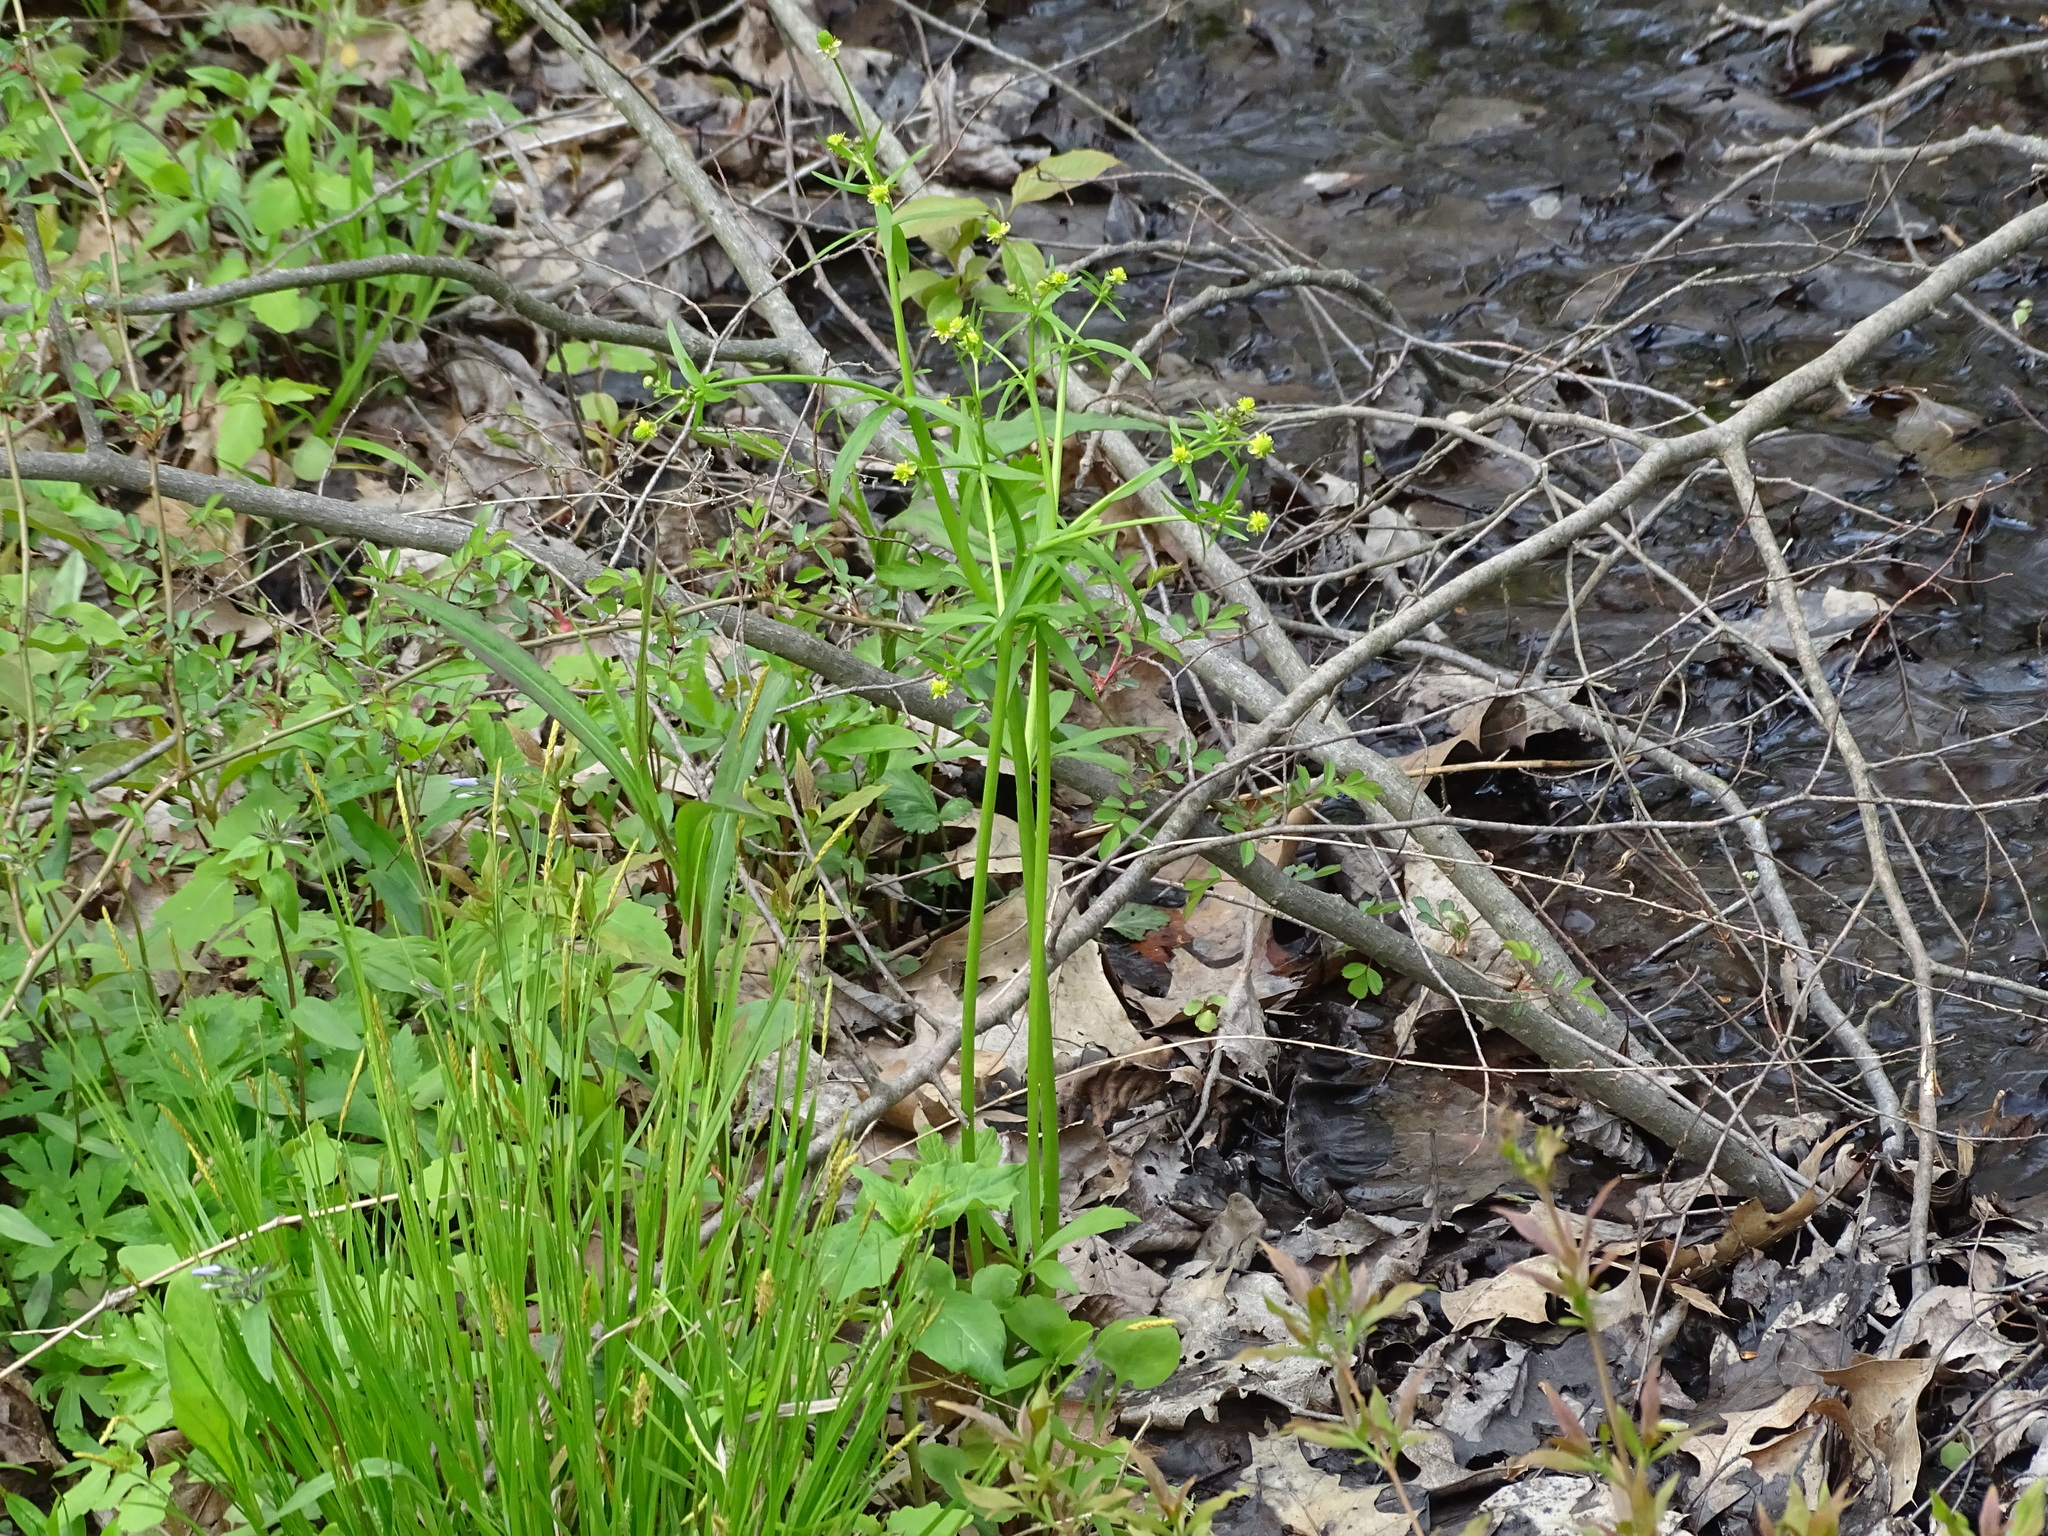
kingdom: Plantae
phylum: Tracheophyta
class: Magnoliopsida
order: Ranunculales
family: Ranunculaceae
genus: Ranunculus
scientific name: Ranunculus abortivus
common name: Early wood buttercup
